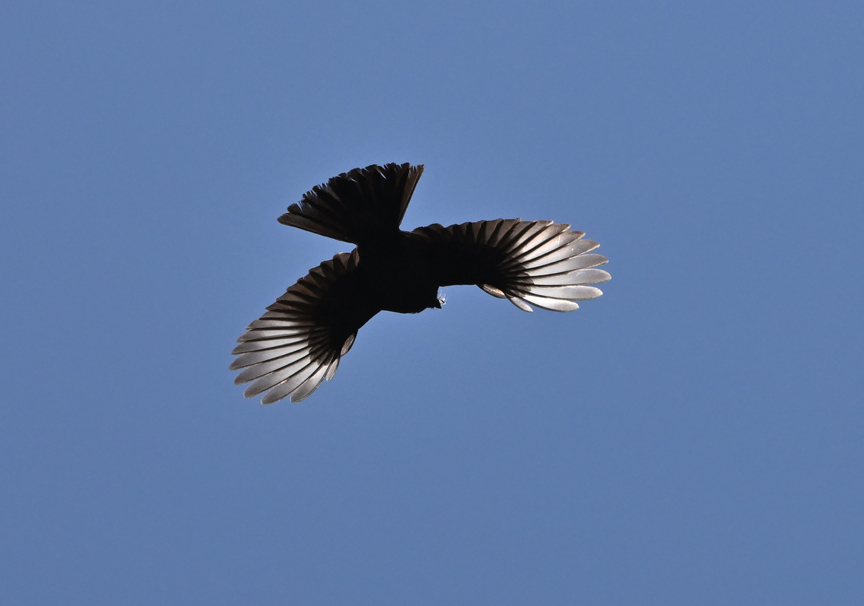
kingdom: Animalia
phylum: Chordata
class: Aves
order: Passeriformes
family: Ptilogonatidae
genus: Phainopepla
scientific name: Phainopepla nitens
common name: Phainopepla
